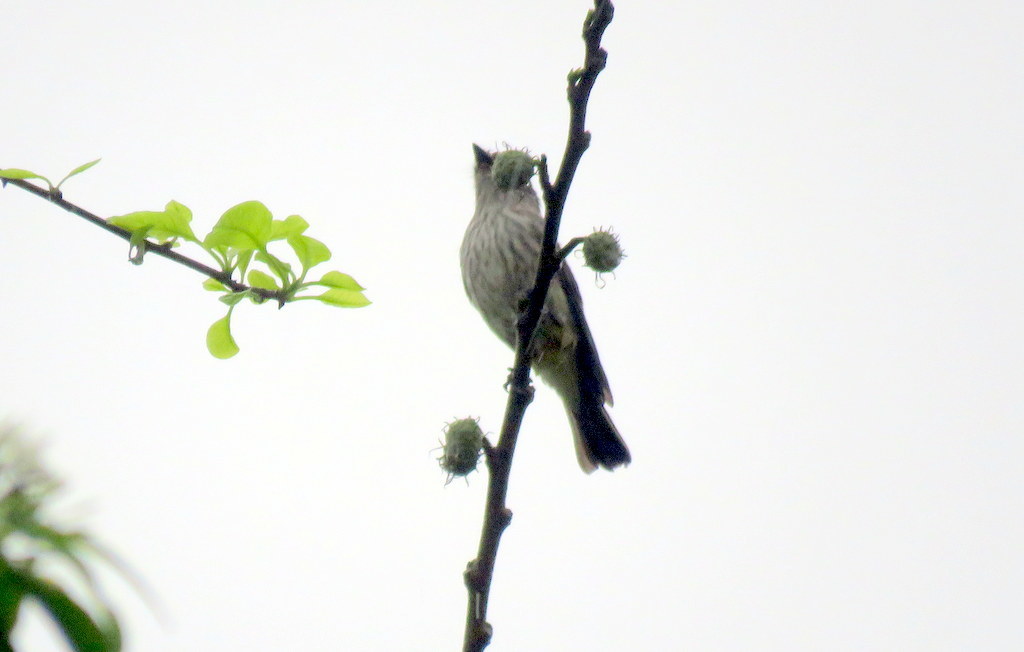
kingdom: Animalia
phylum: Chordata
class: Aves
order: Passeriformes
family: Tyrannidae
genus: Pyrocephalus
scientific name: Pyrocephalus rubinus
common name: Vermilion flycatcher
